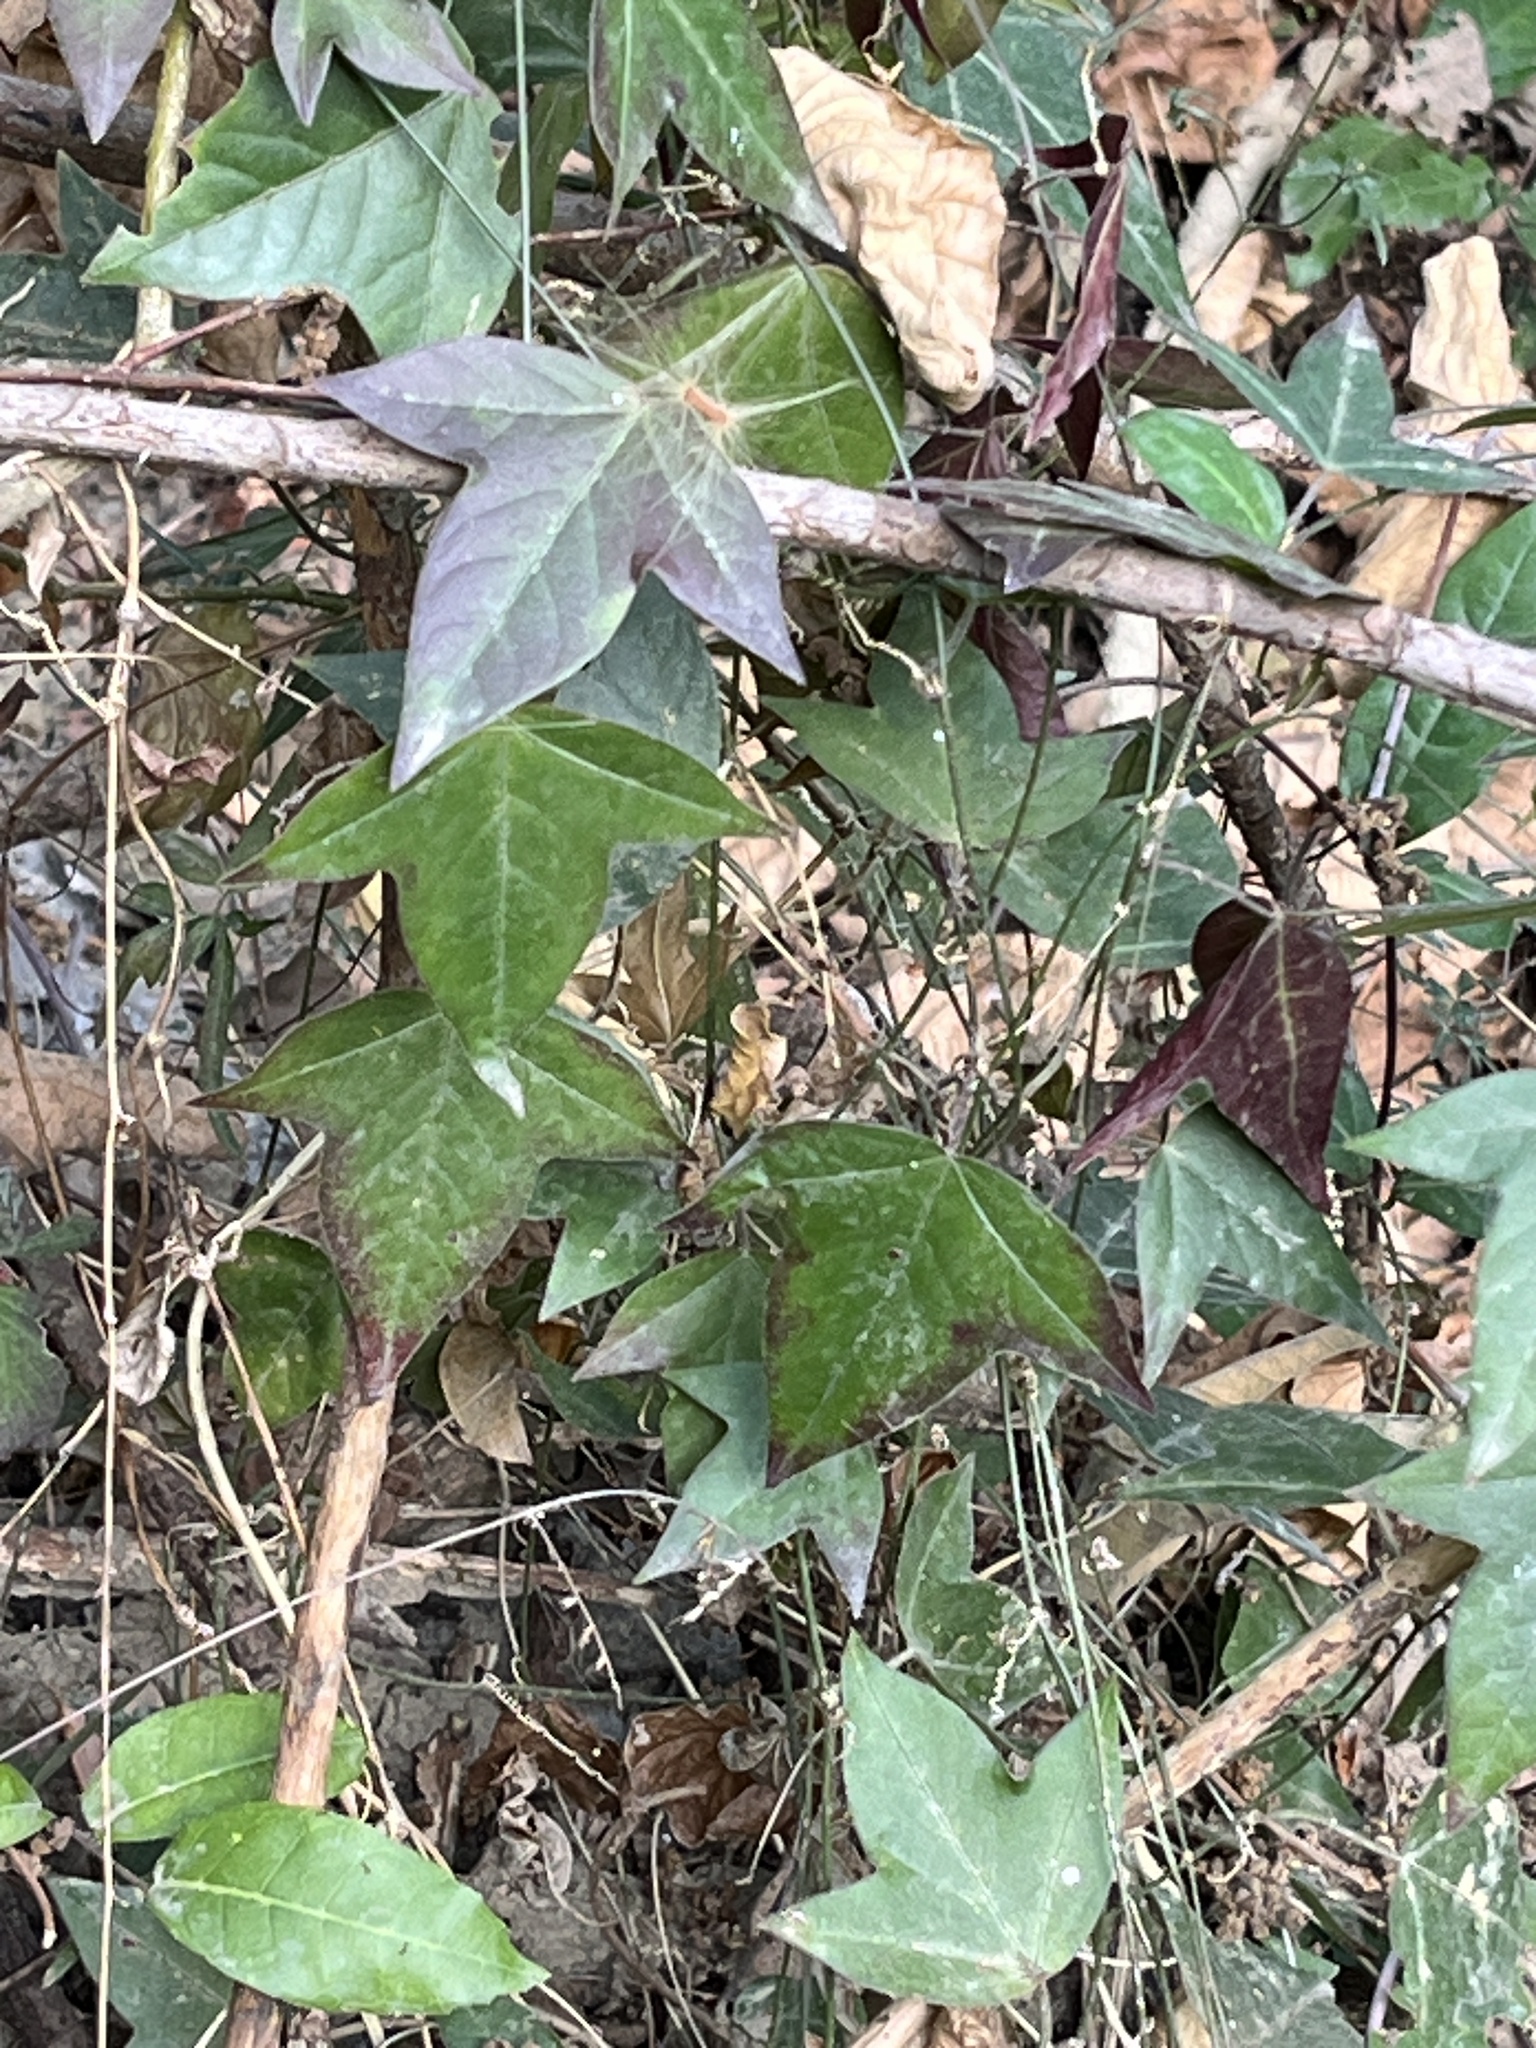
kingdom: Plantae
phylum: Tracheophyta
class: Magnoliopsida
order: Malpighiales
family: Passifloraceae
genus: Passiflora
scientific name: Passiflora suberosa
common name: Wild passionfruit
